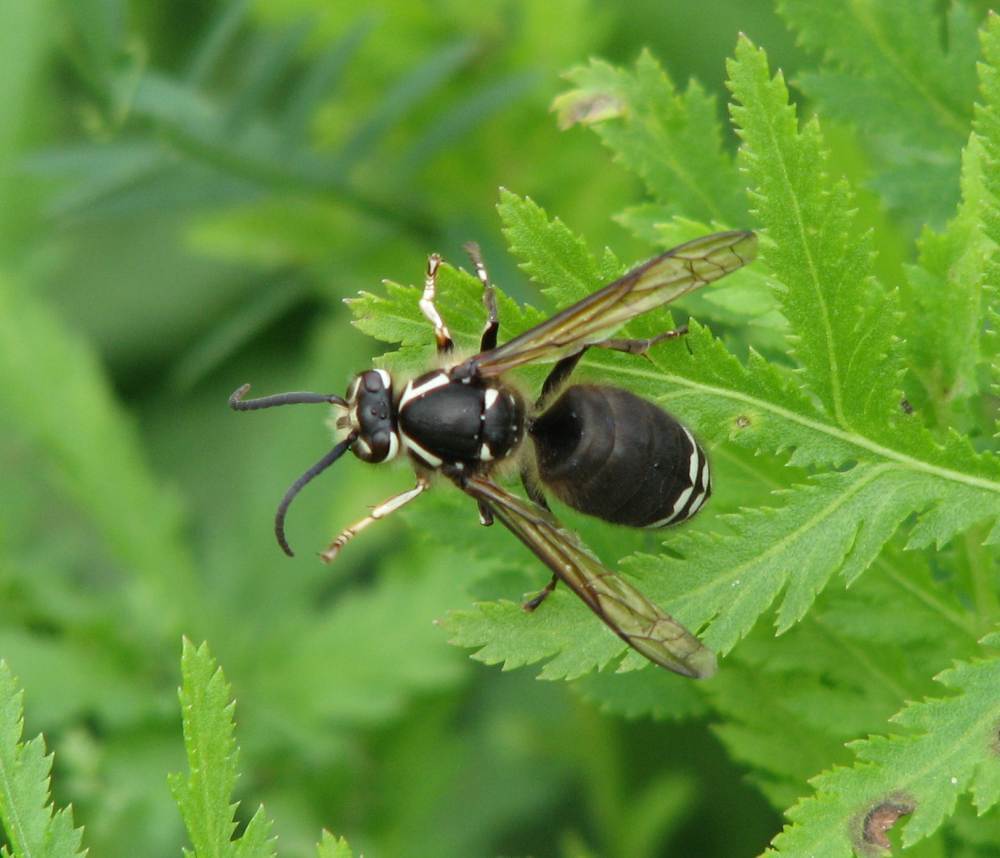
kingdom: Animalia
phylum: Arthropoda
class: Insecta
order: Hymenoptera
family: Vespidae
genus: Dolichovespula
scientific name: Dolichovespula maculata
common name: Bald-faced hornet
